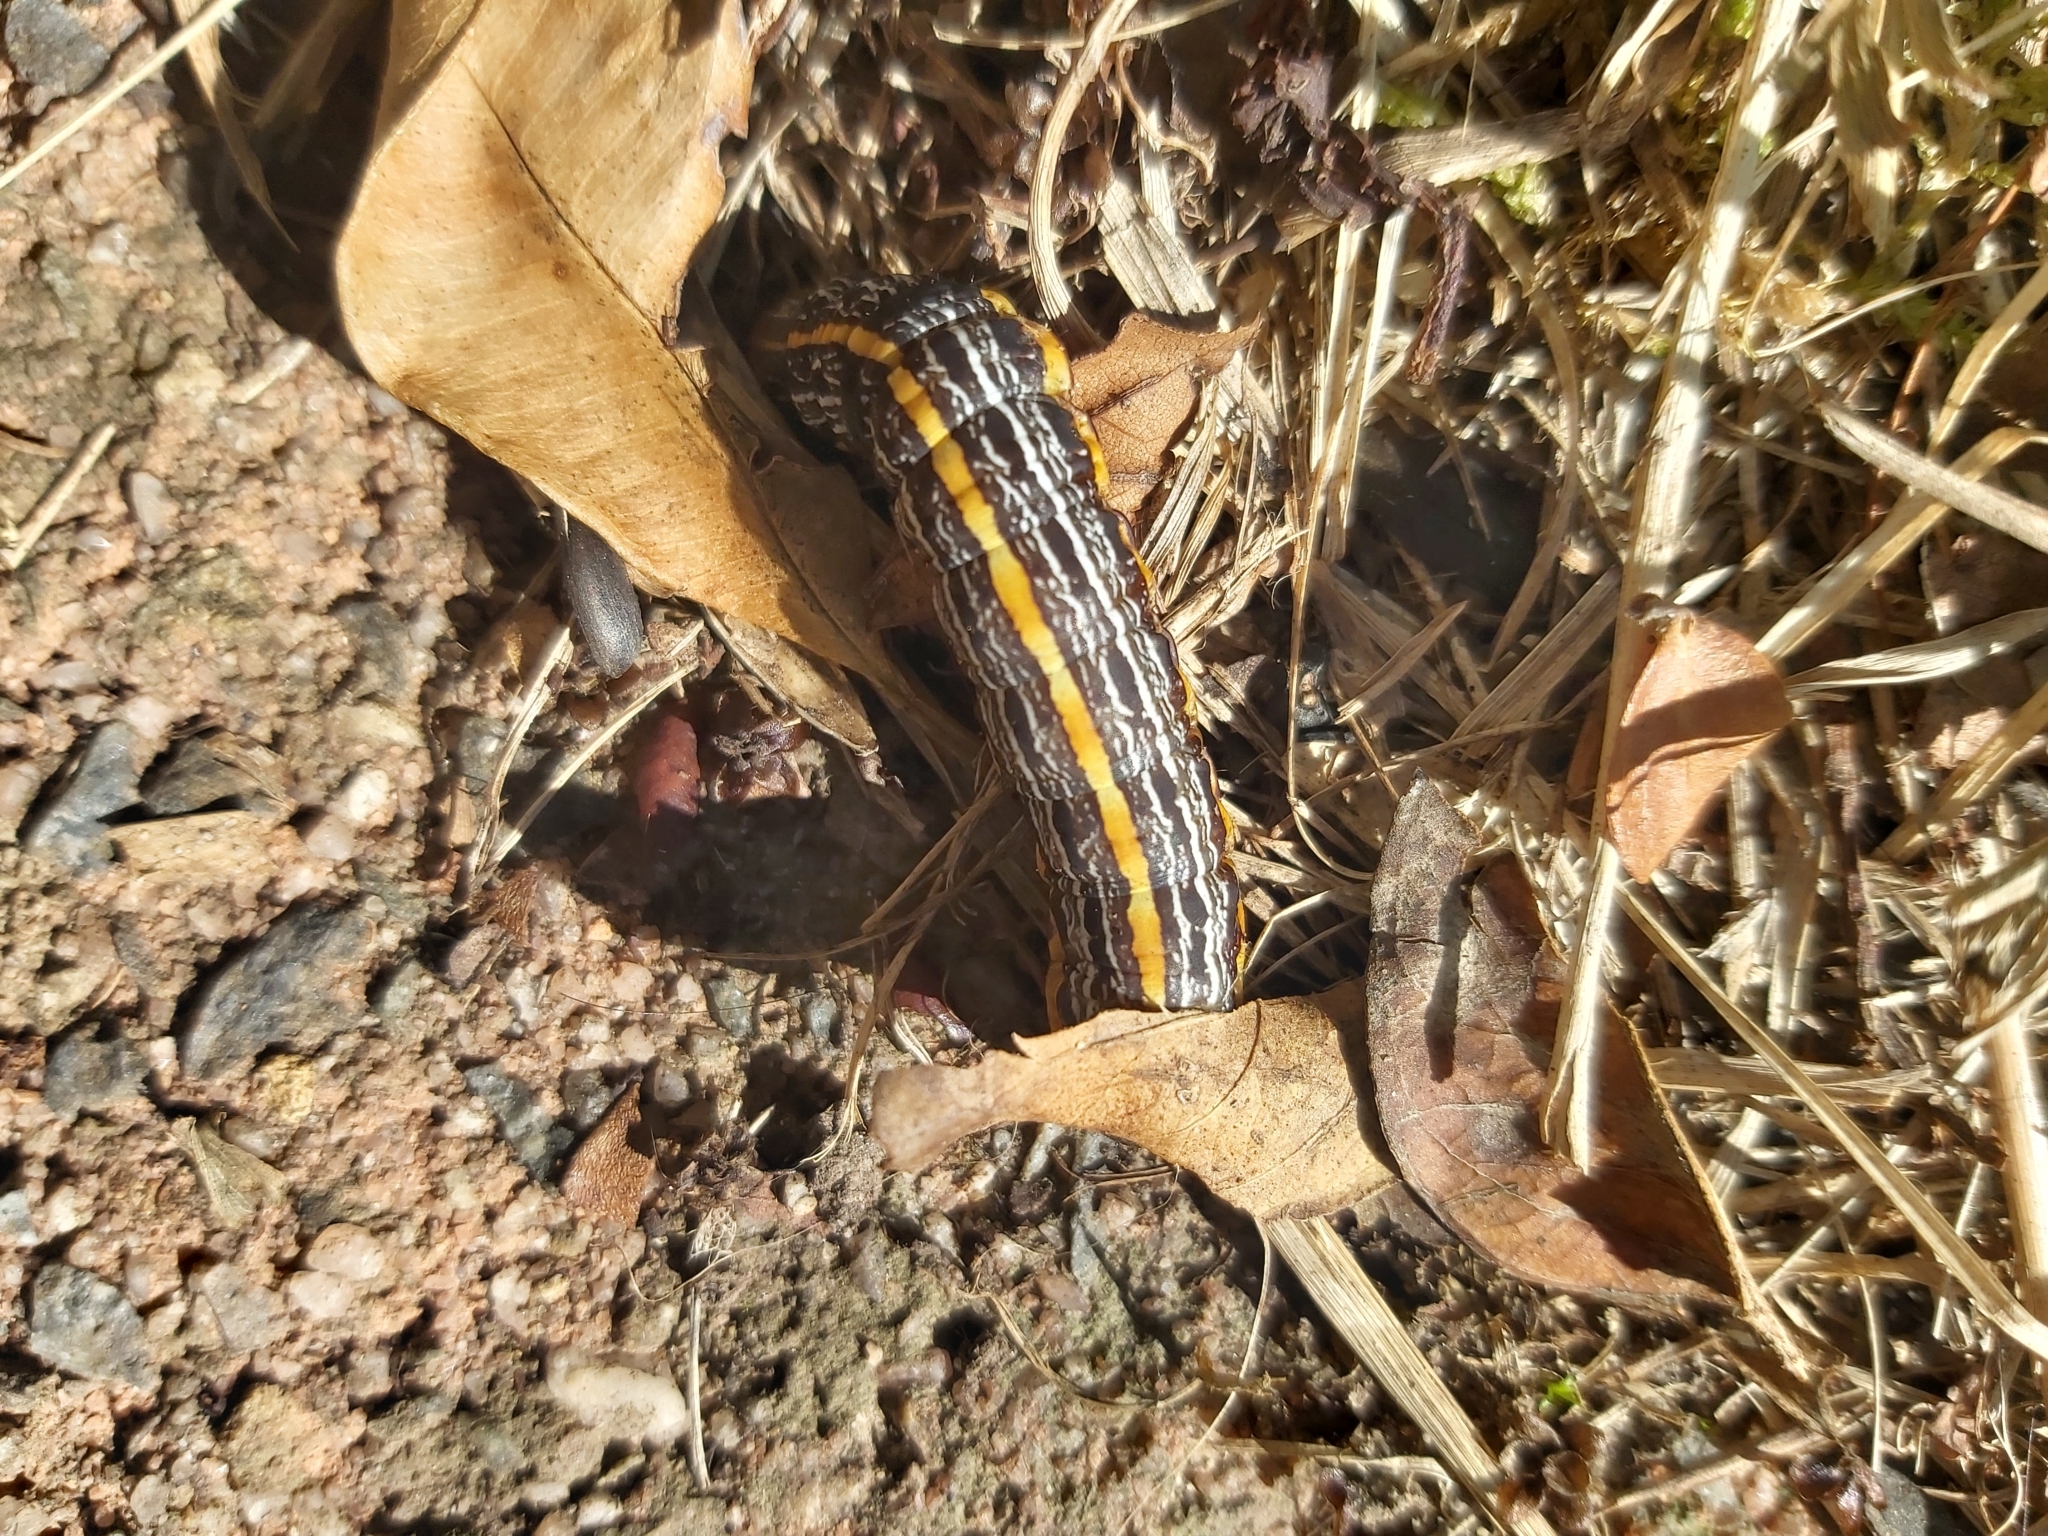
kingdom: Animalia
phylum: Arthropoda
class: Insecta
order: Lepidoptera
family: Noctuidae
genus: Spodoptera
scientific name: Spodoptera picta
